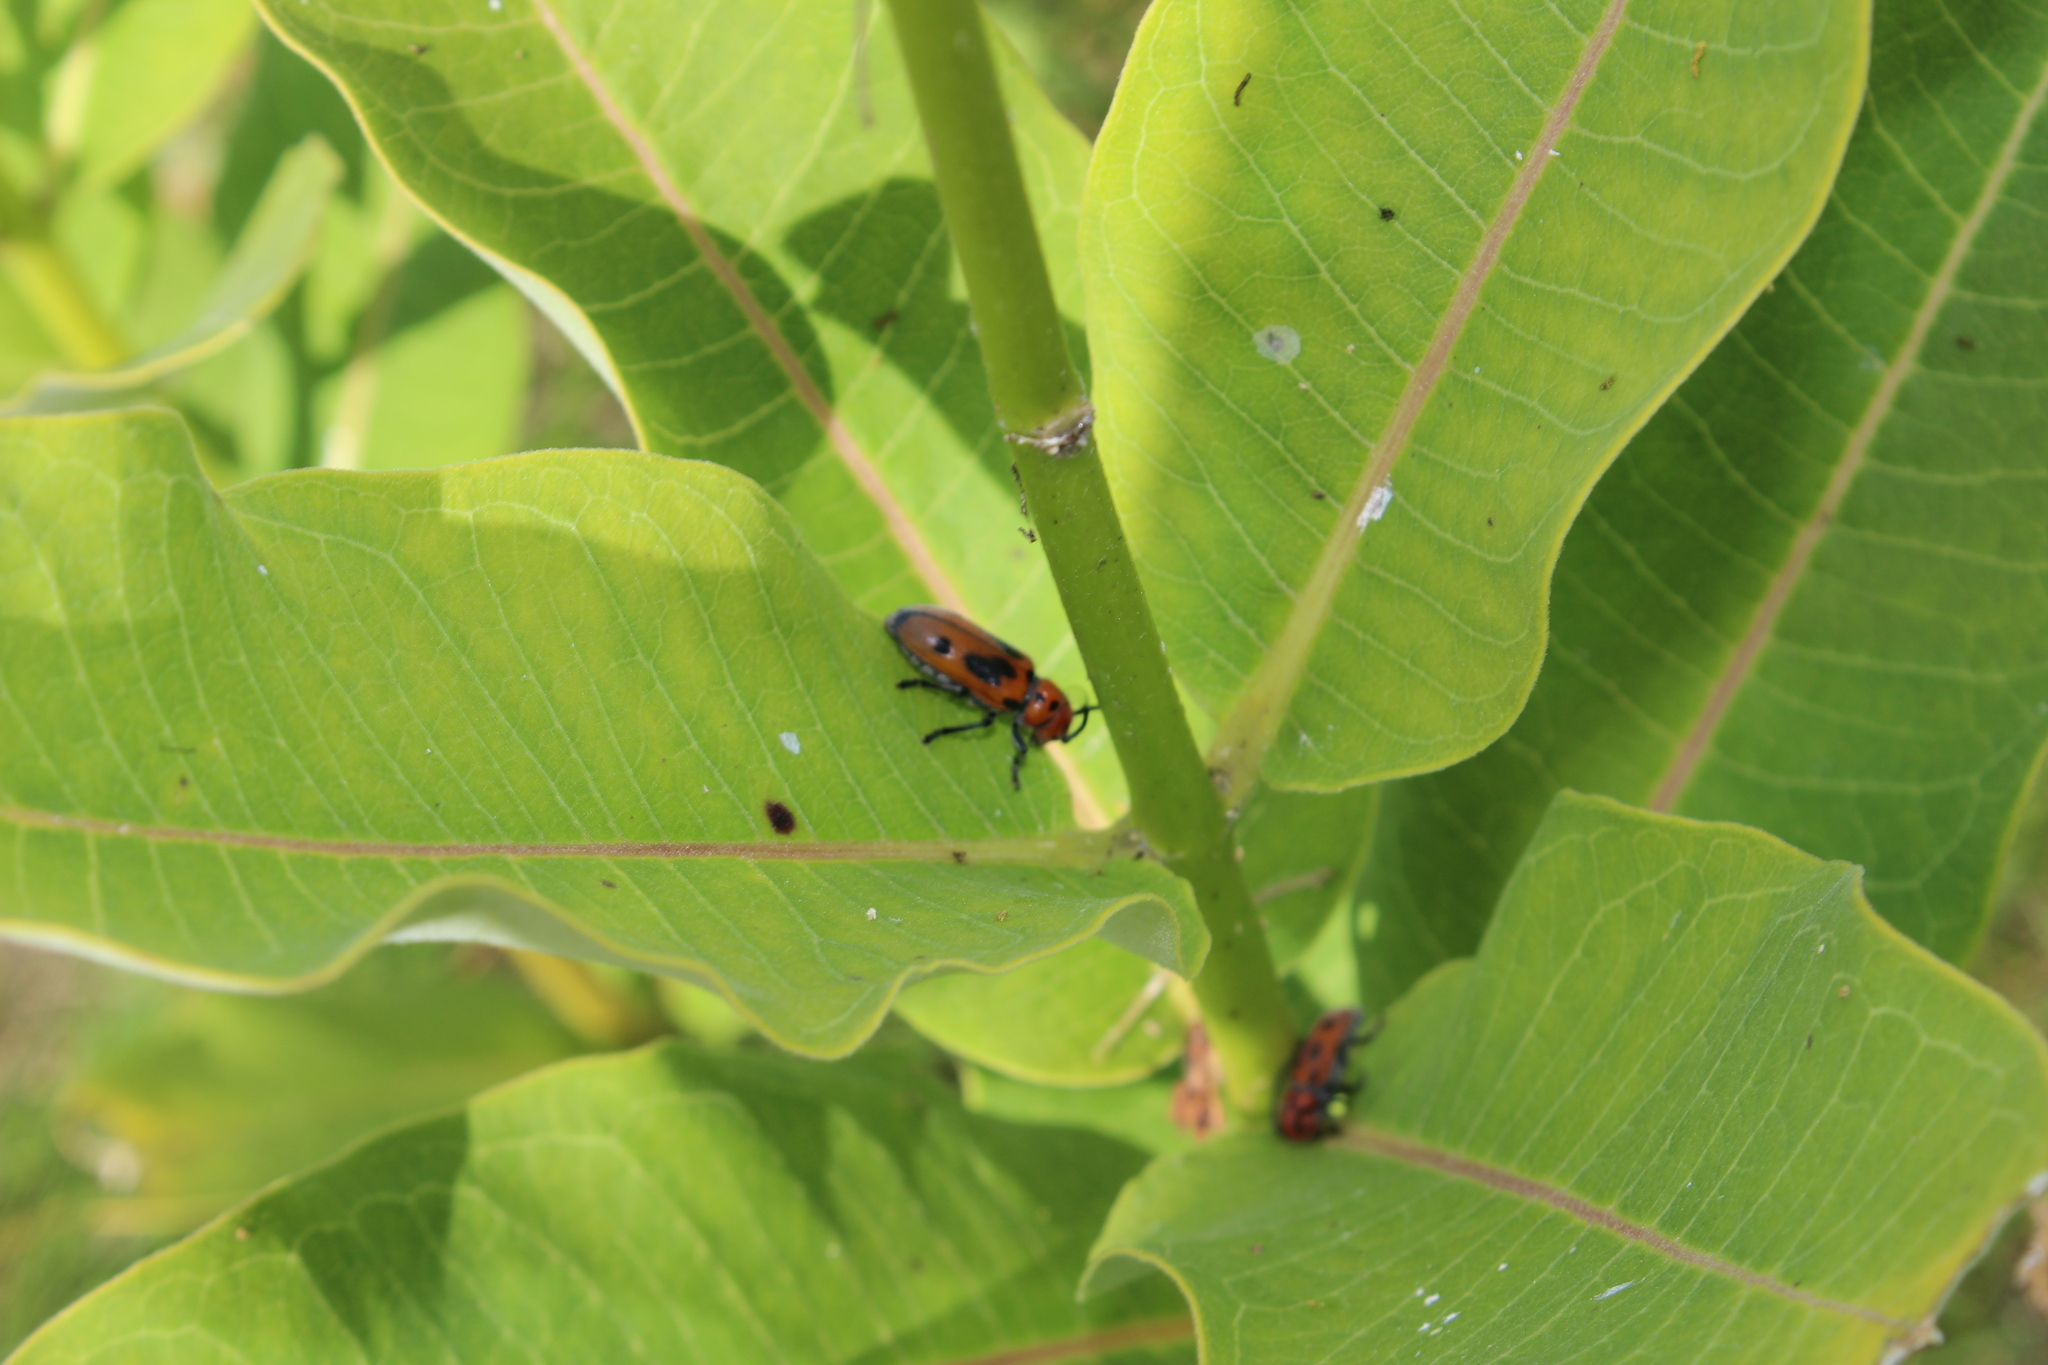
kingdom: Animalia
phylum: Arthropoda
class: Insecta
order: Coleoptera
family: Cerambycidae
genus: Tetraopes
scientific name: Tetraopes tetrophthalmus
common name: Red milkweed beetle
